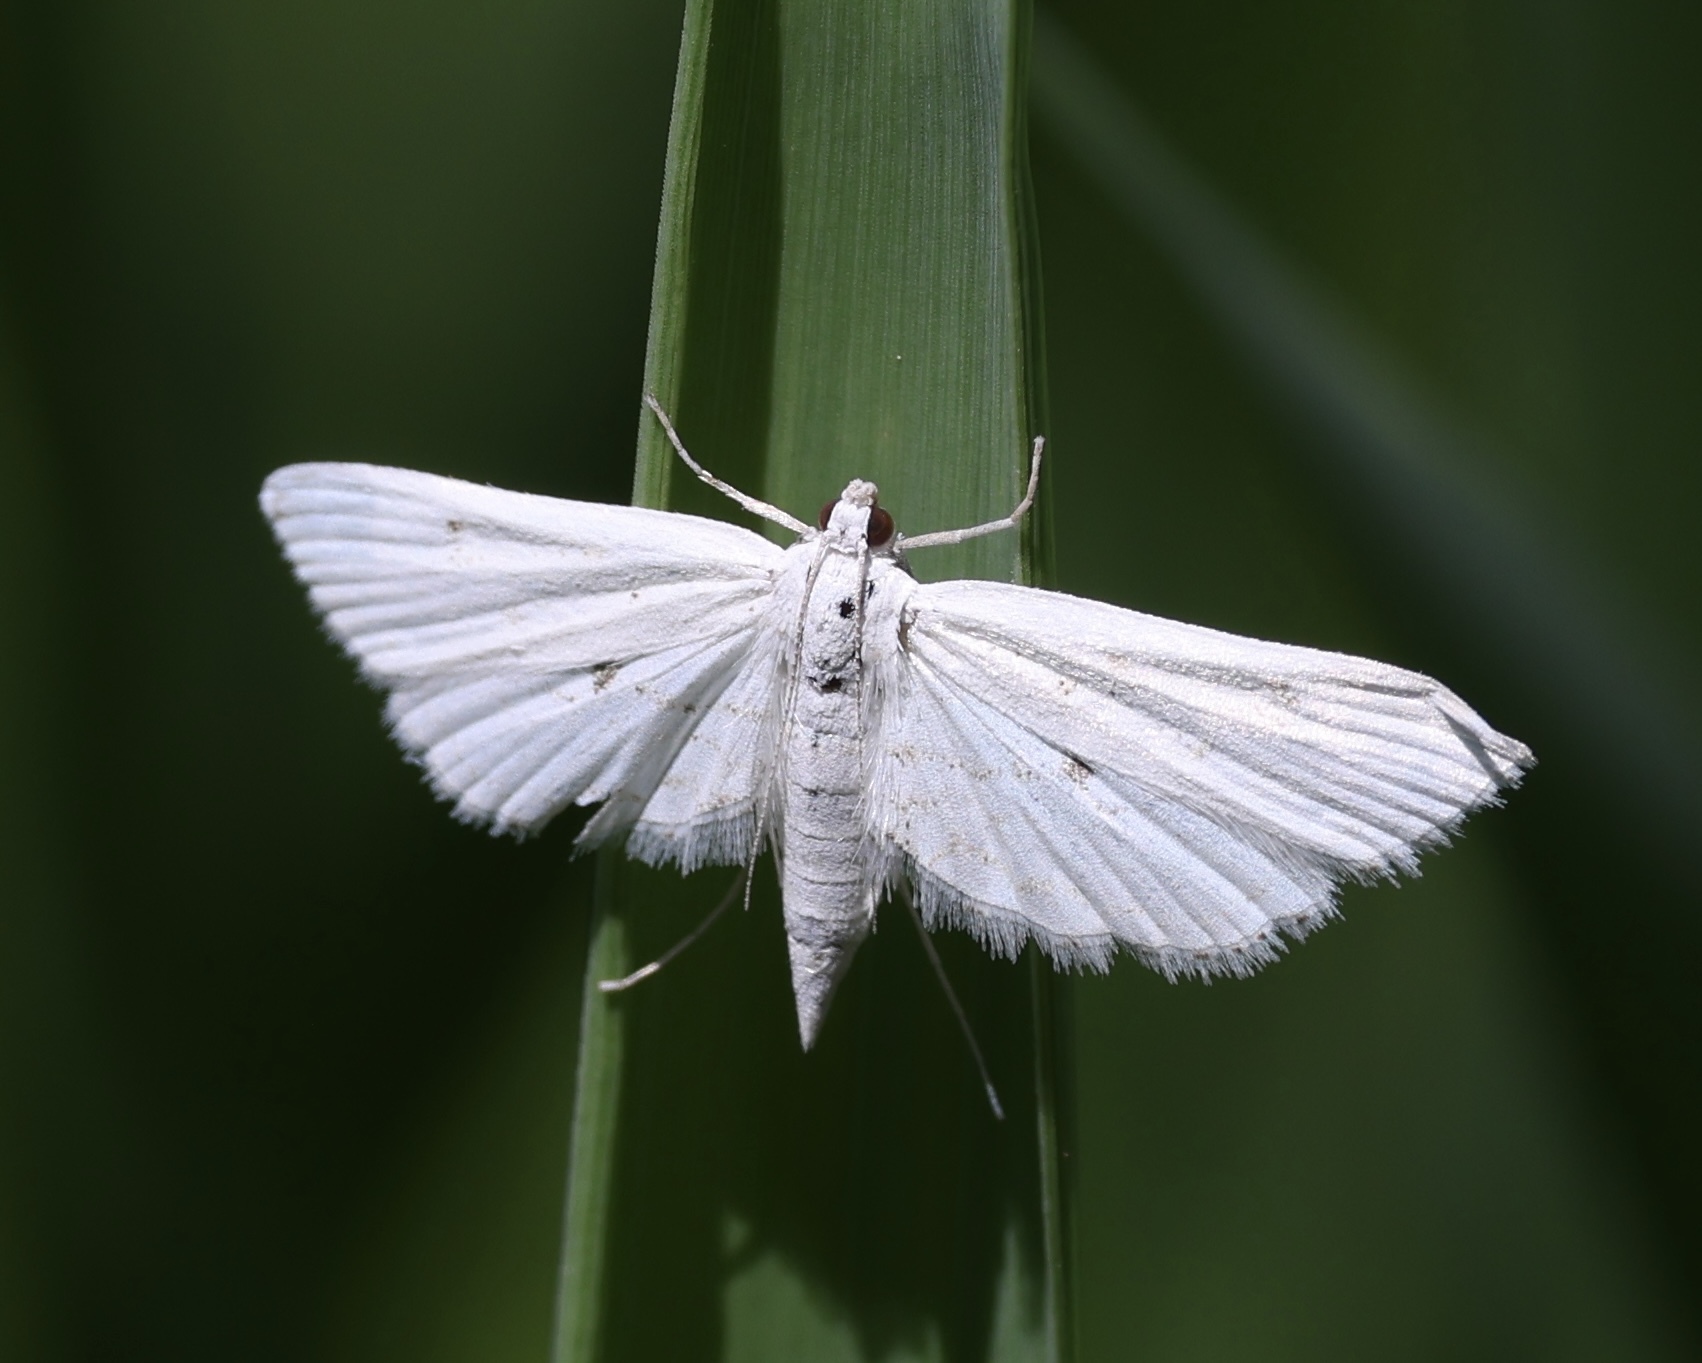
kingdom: Animalia
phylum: Arthropoda
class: Insecta
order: Lepidoptera
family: Crambidae
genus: Parapoynx
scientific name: Parapoynx allionealis
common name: Bladderwort casemaker
